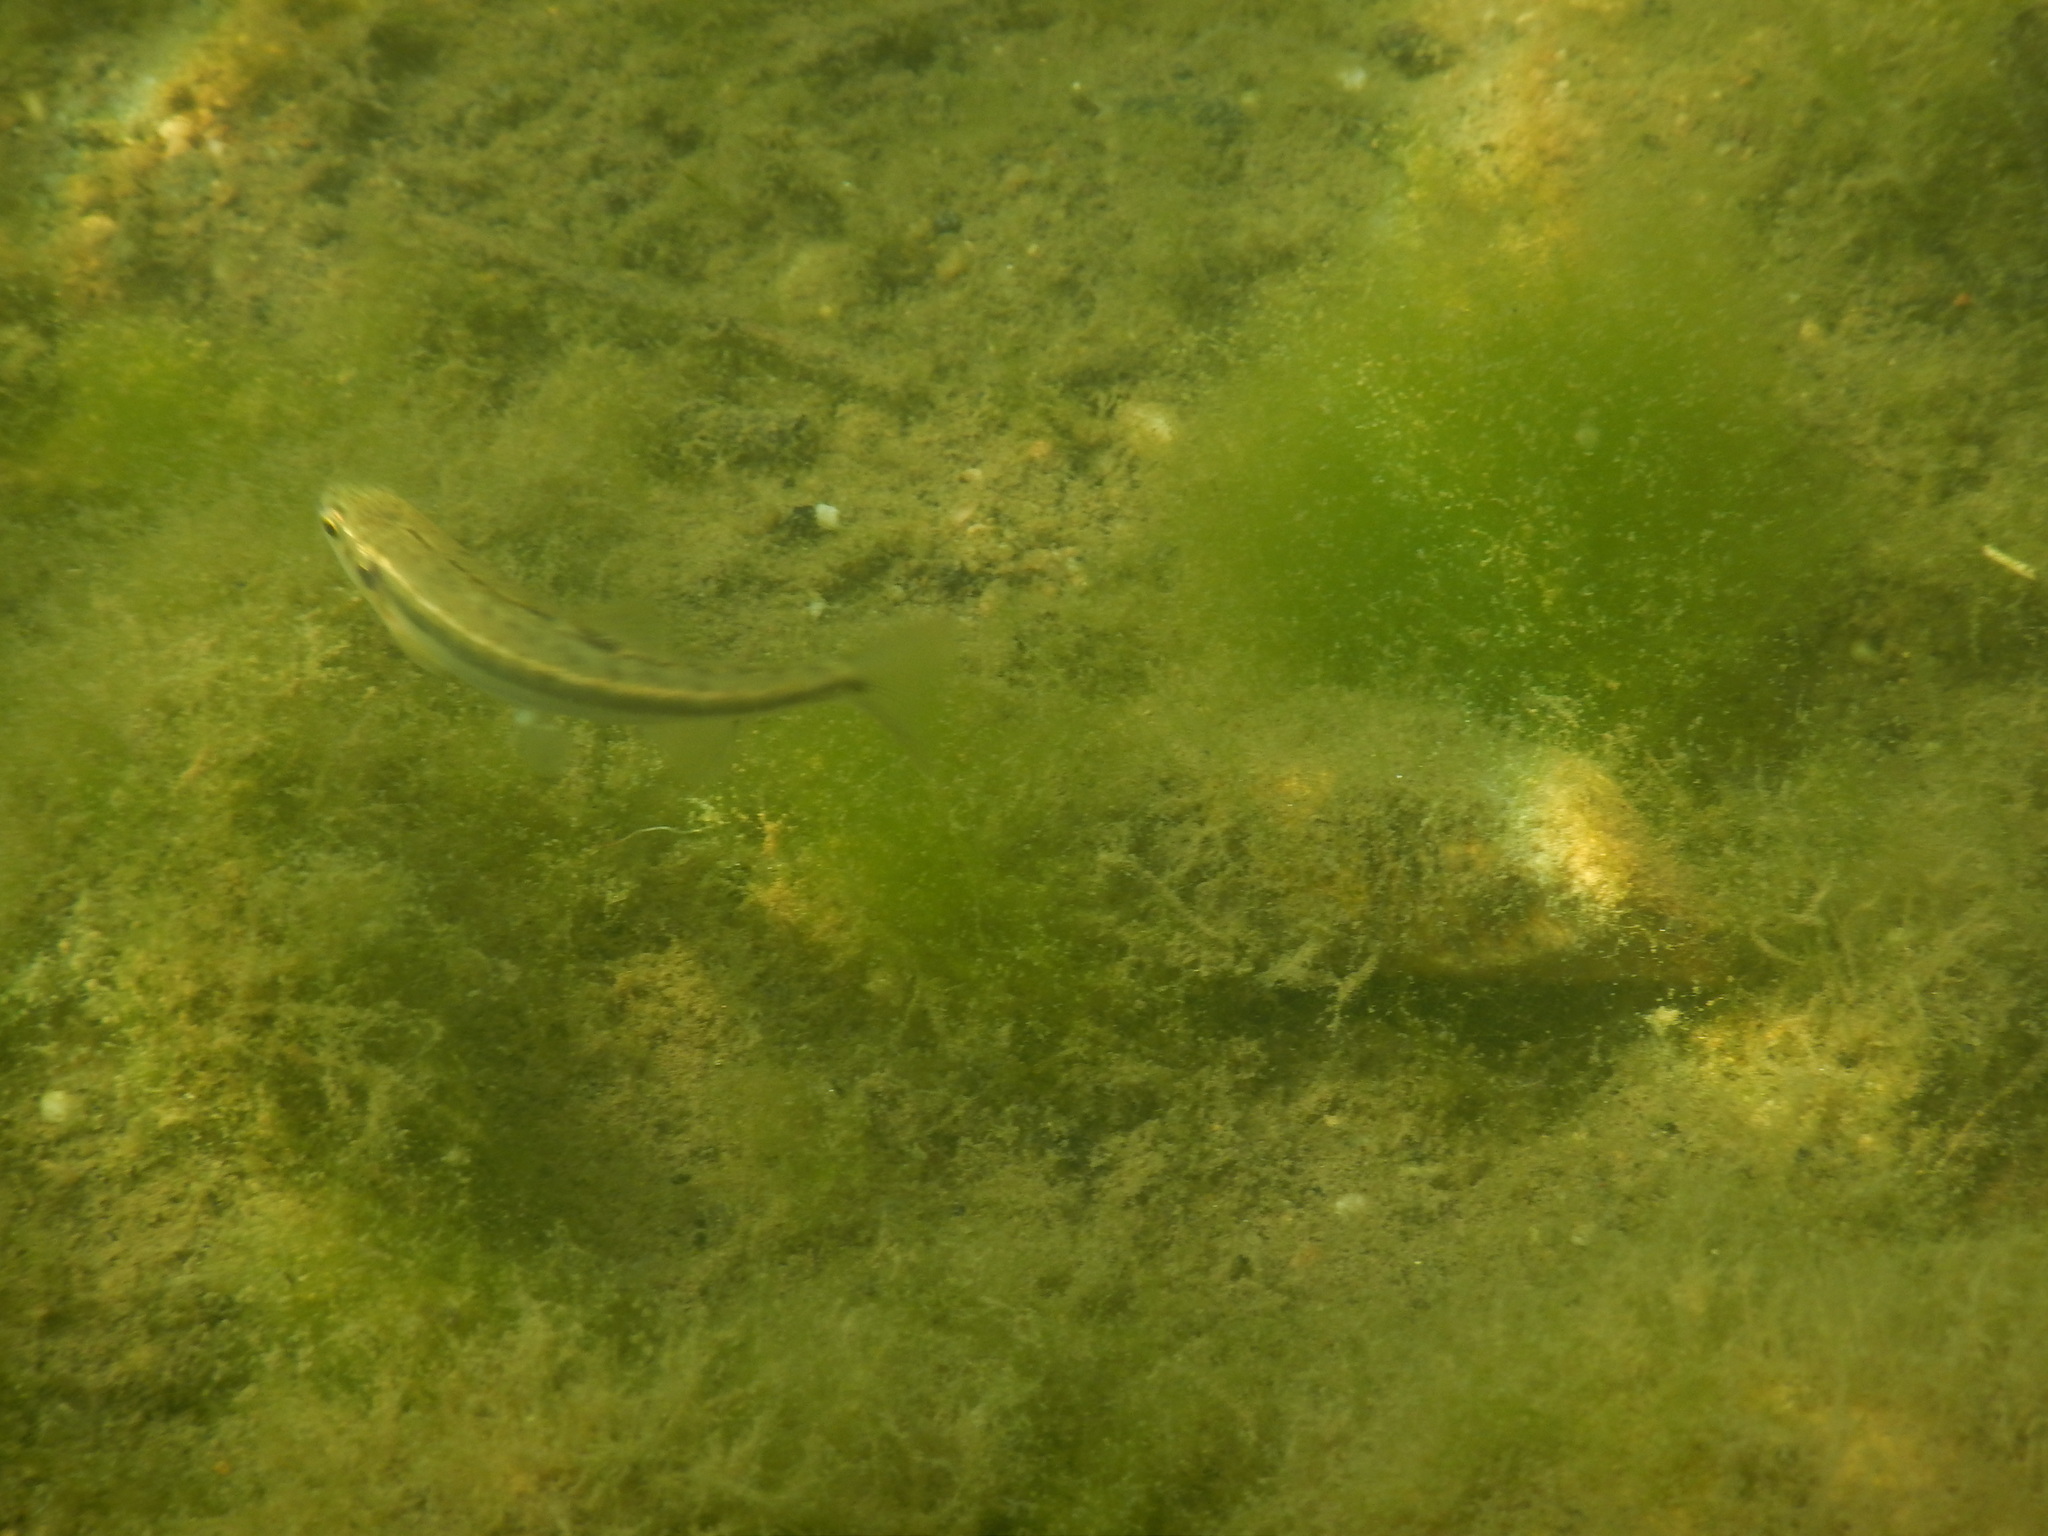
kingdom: Animalia
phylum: Chordata
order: Cypriniformes
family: Cyprinidae
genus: Phoxinus
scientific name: Phoxinus septimaniae
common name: Languedoc minnow
